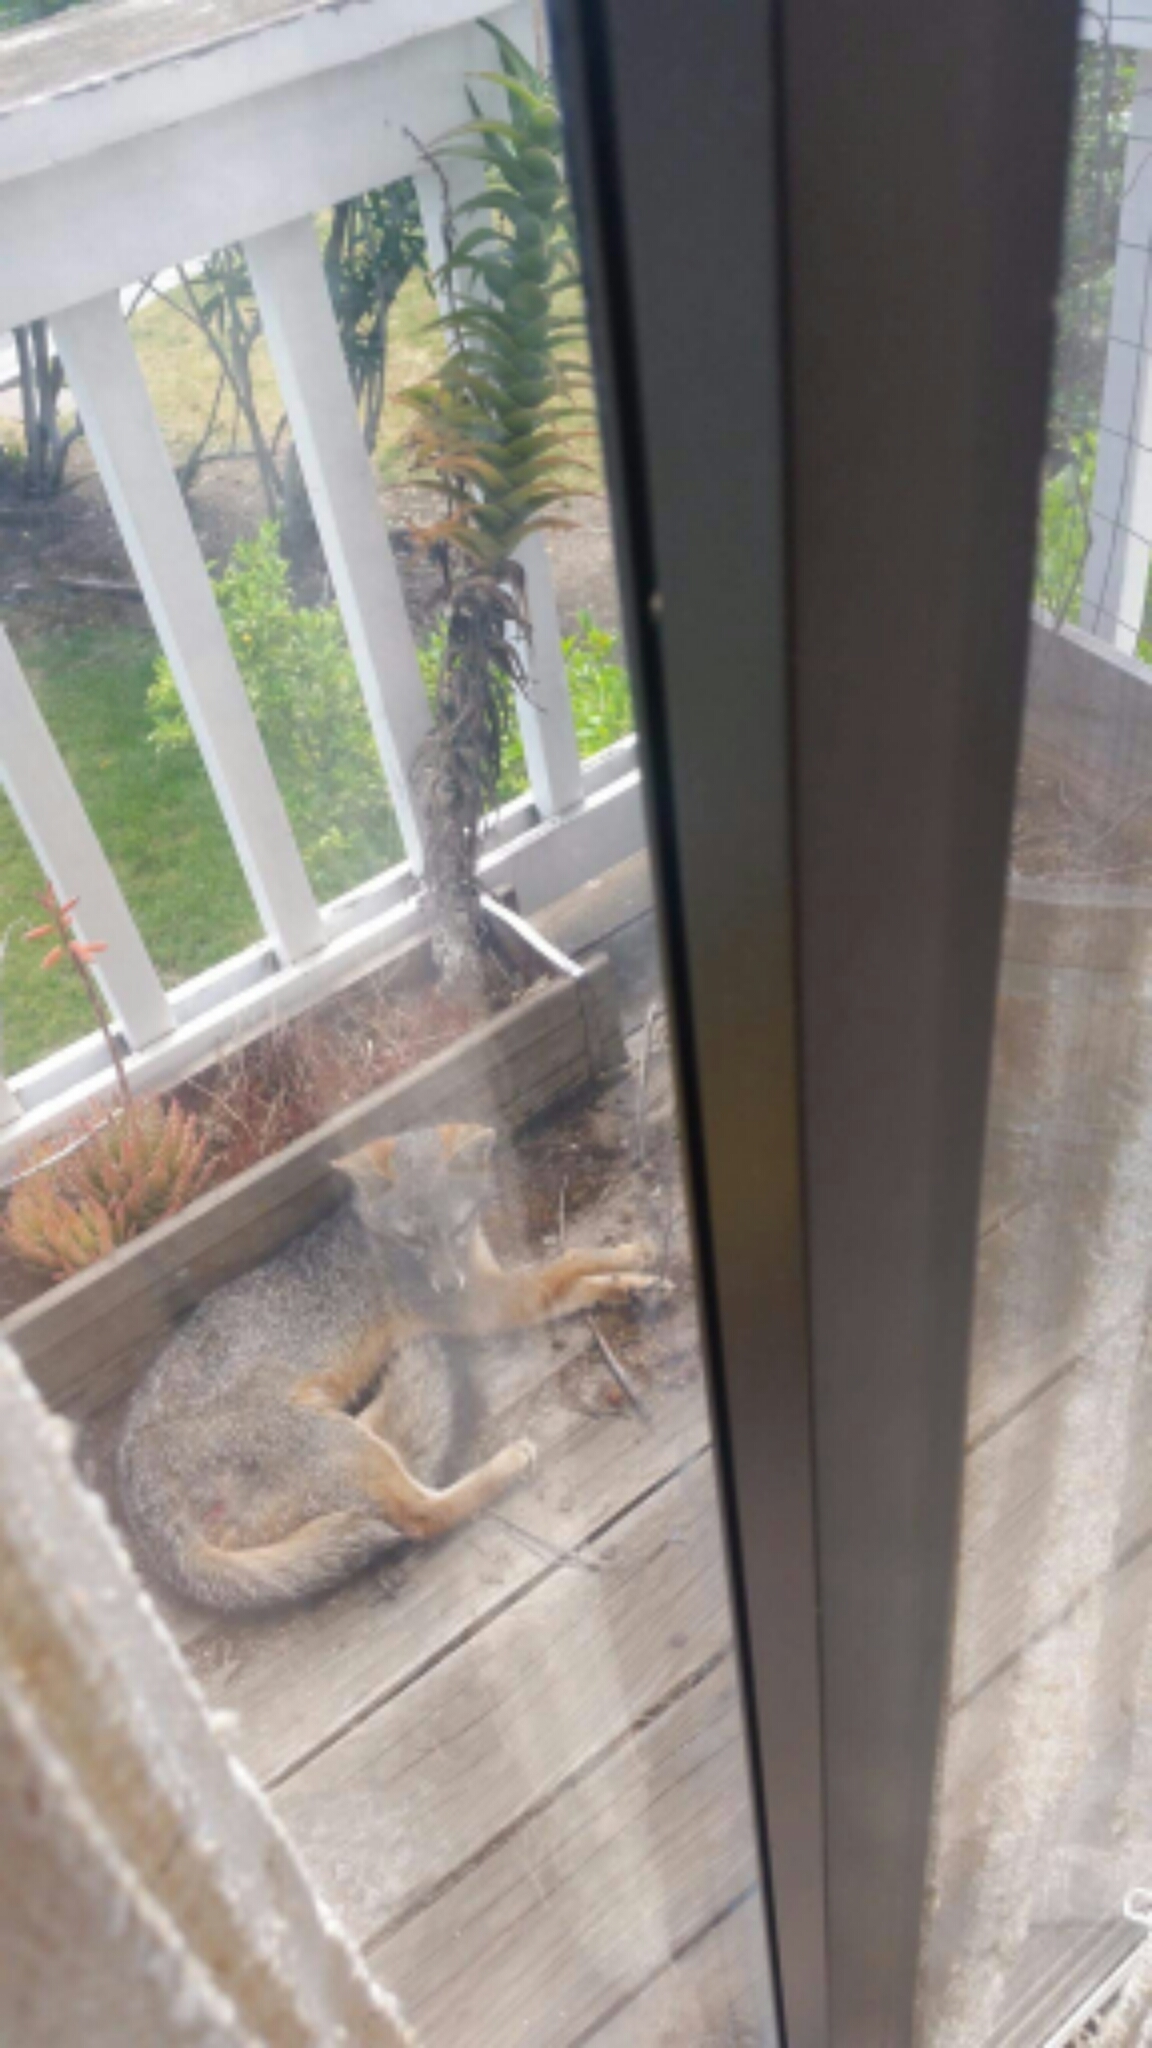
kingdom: Animalia
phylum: Chordata
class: Mammalia
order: Carnivora
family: Canidae
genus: Urocyon
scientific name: Urocyon cinereoargenteus
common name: Gray fox
